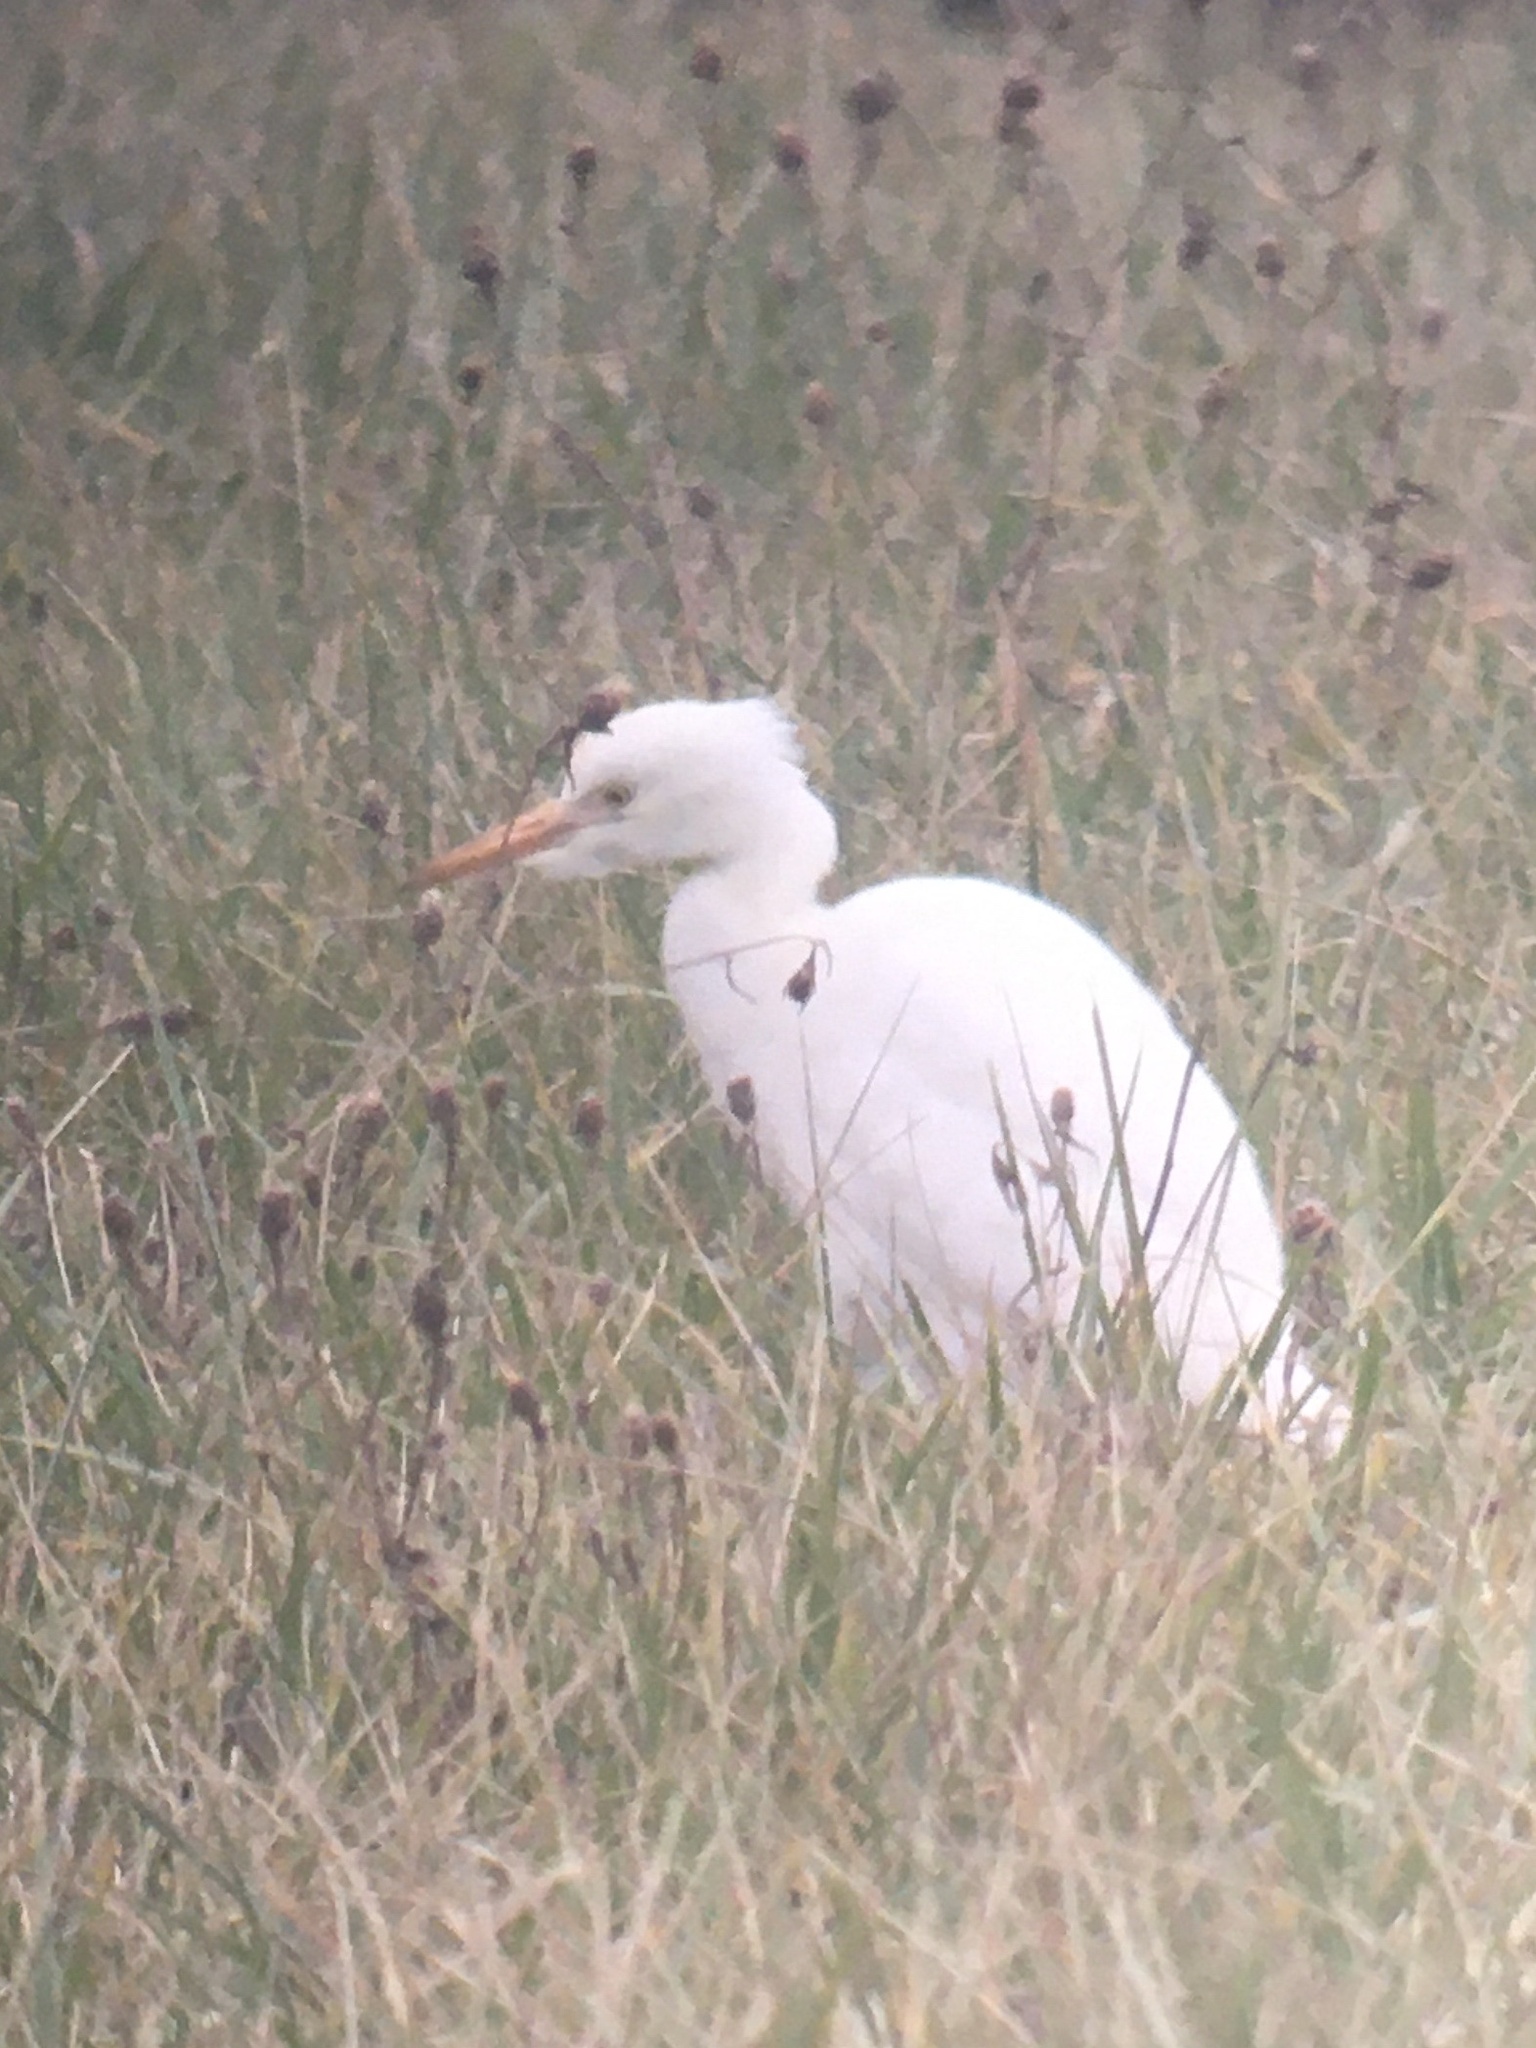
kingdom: Animalia
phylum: Chordata
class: Aves
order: Pelecaniformes
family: Ardeidae
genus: Bubulcus
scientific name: Bubulcus ibis
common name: Cattle egret
